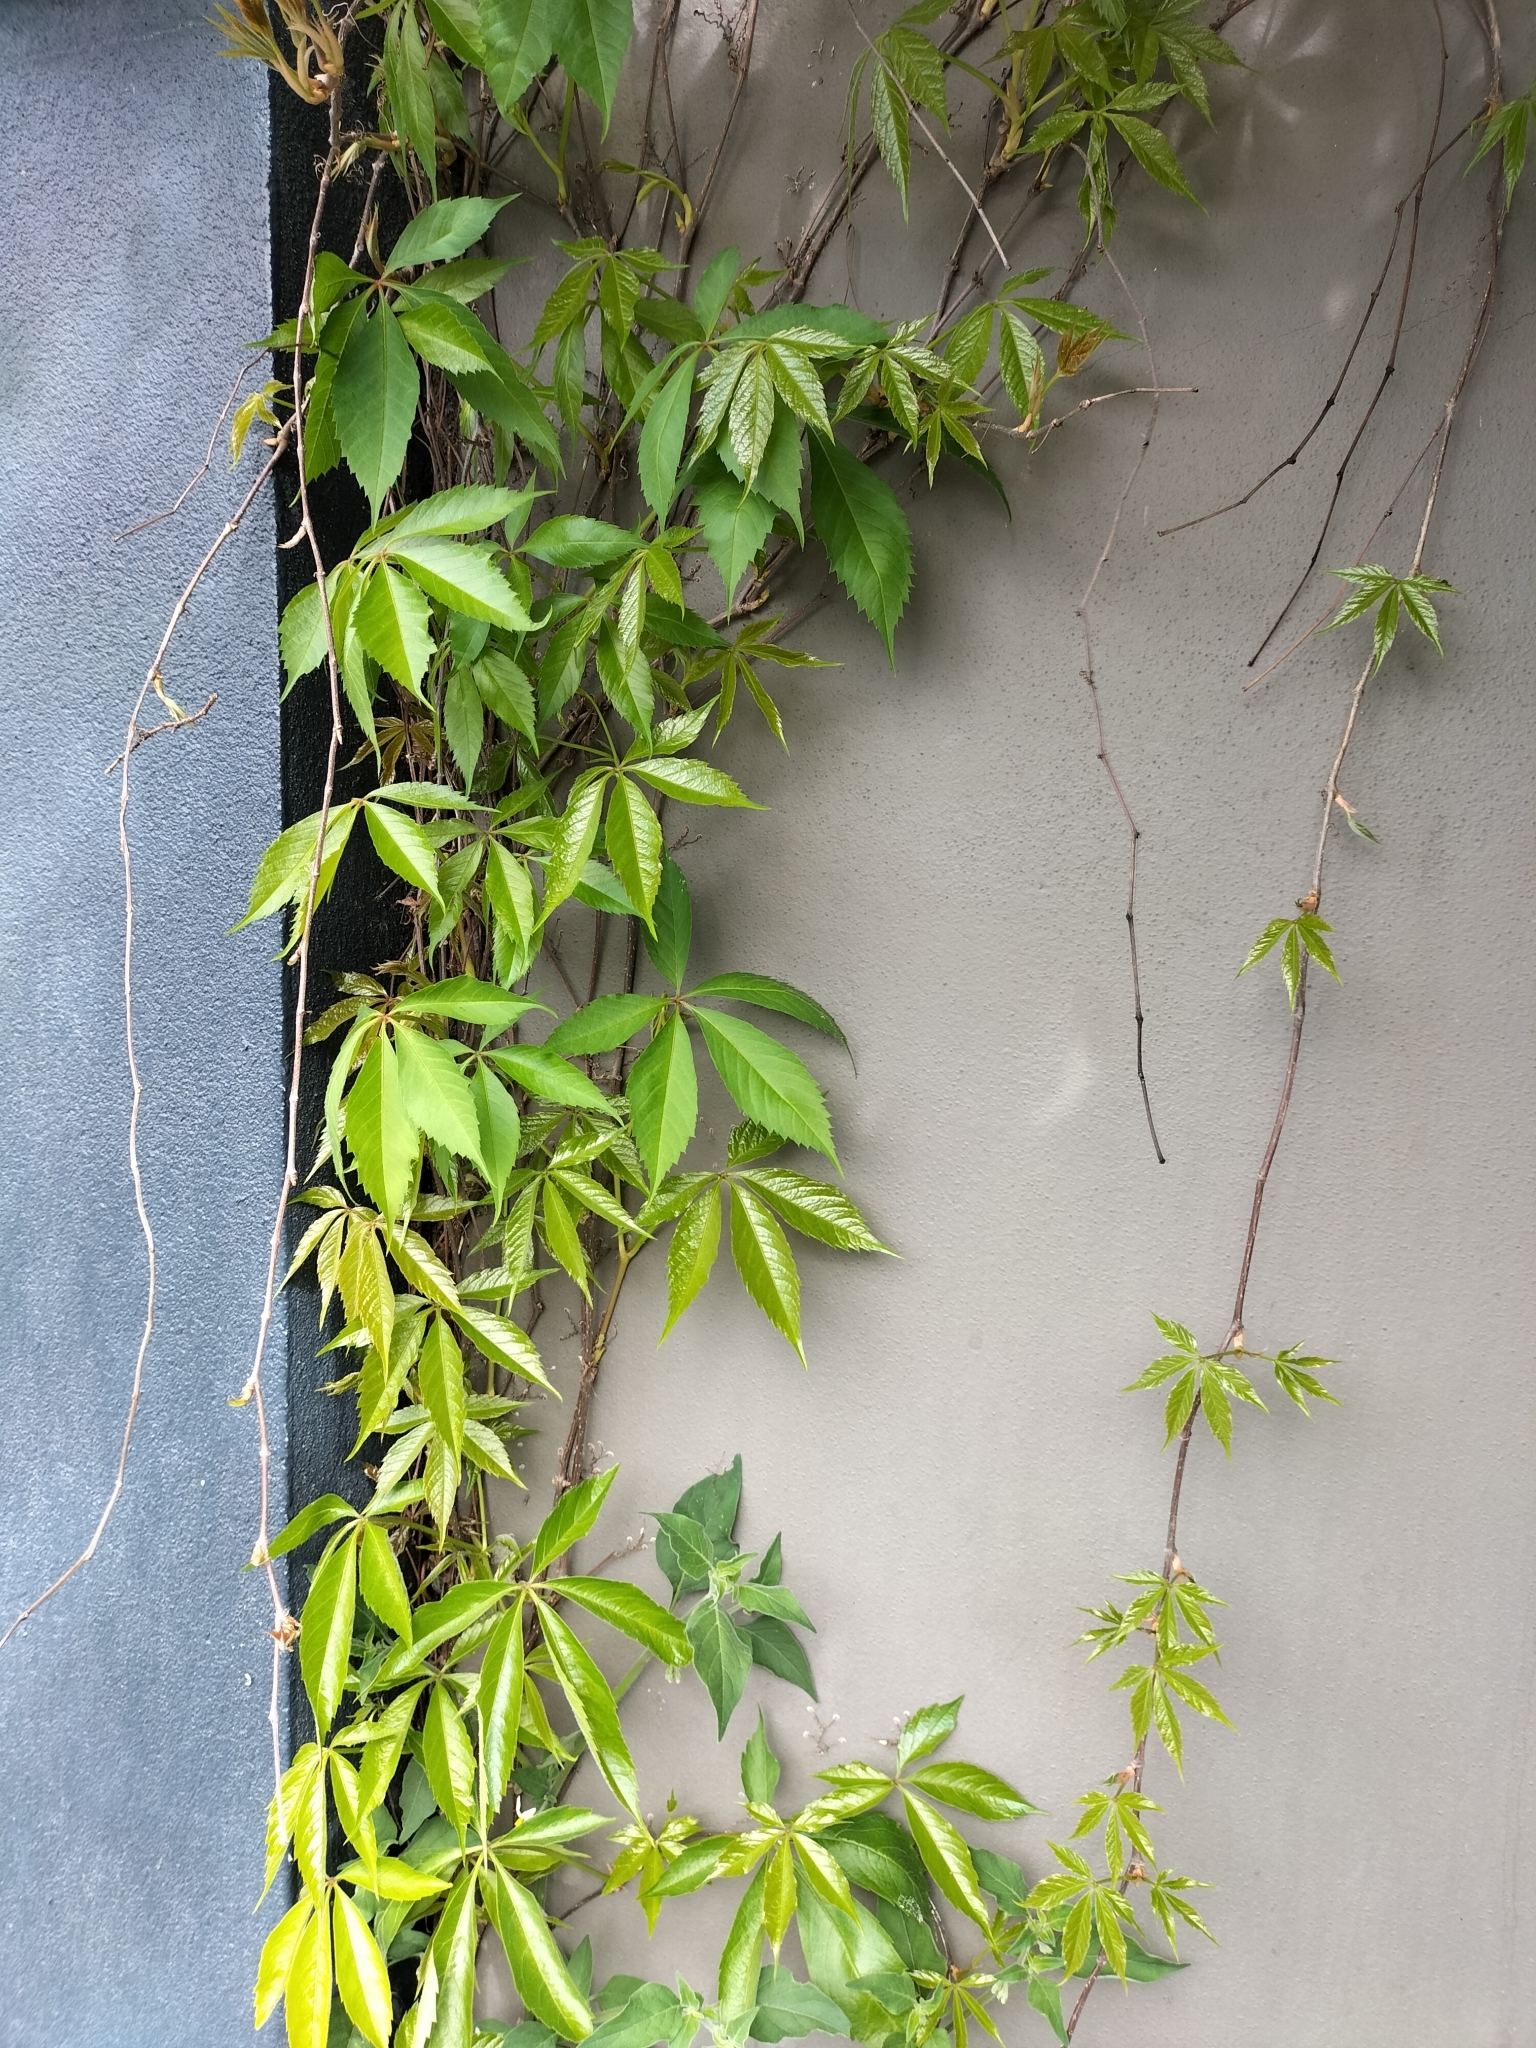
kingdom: Plantae
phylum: Tracheophyta
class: Magnoliopsida
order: Vitales
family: Vitaceae
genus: Parthenocissus
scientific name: Parthenocissus quinquefolia
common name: Virginia-creeper
